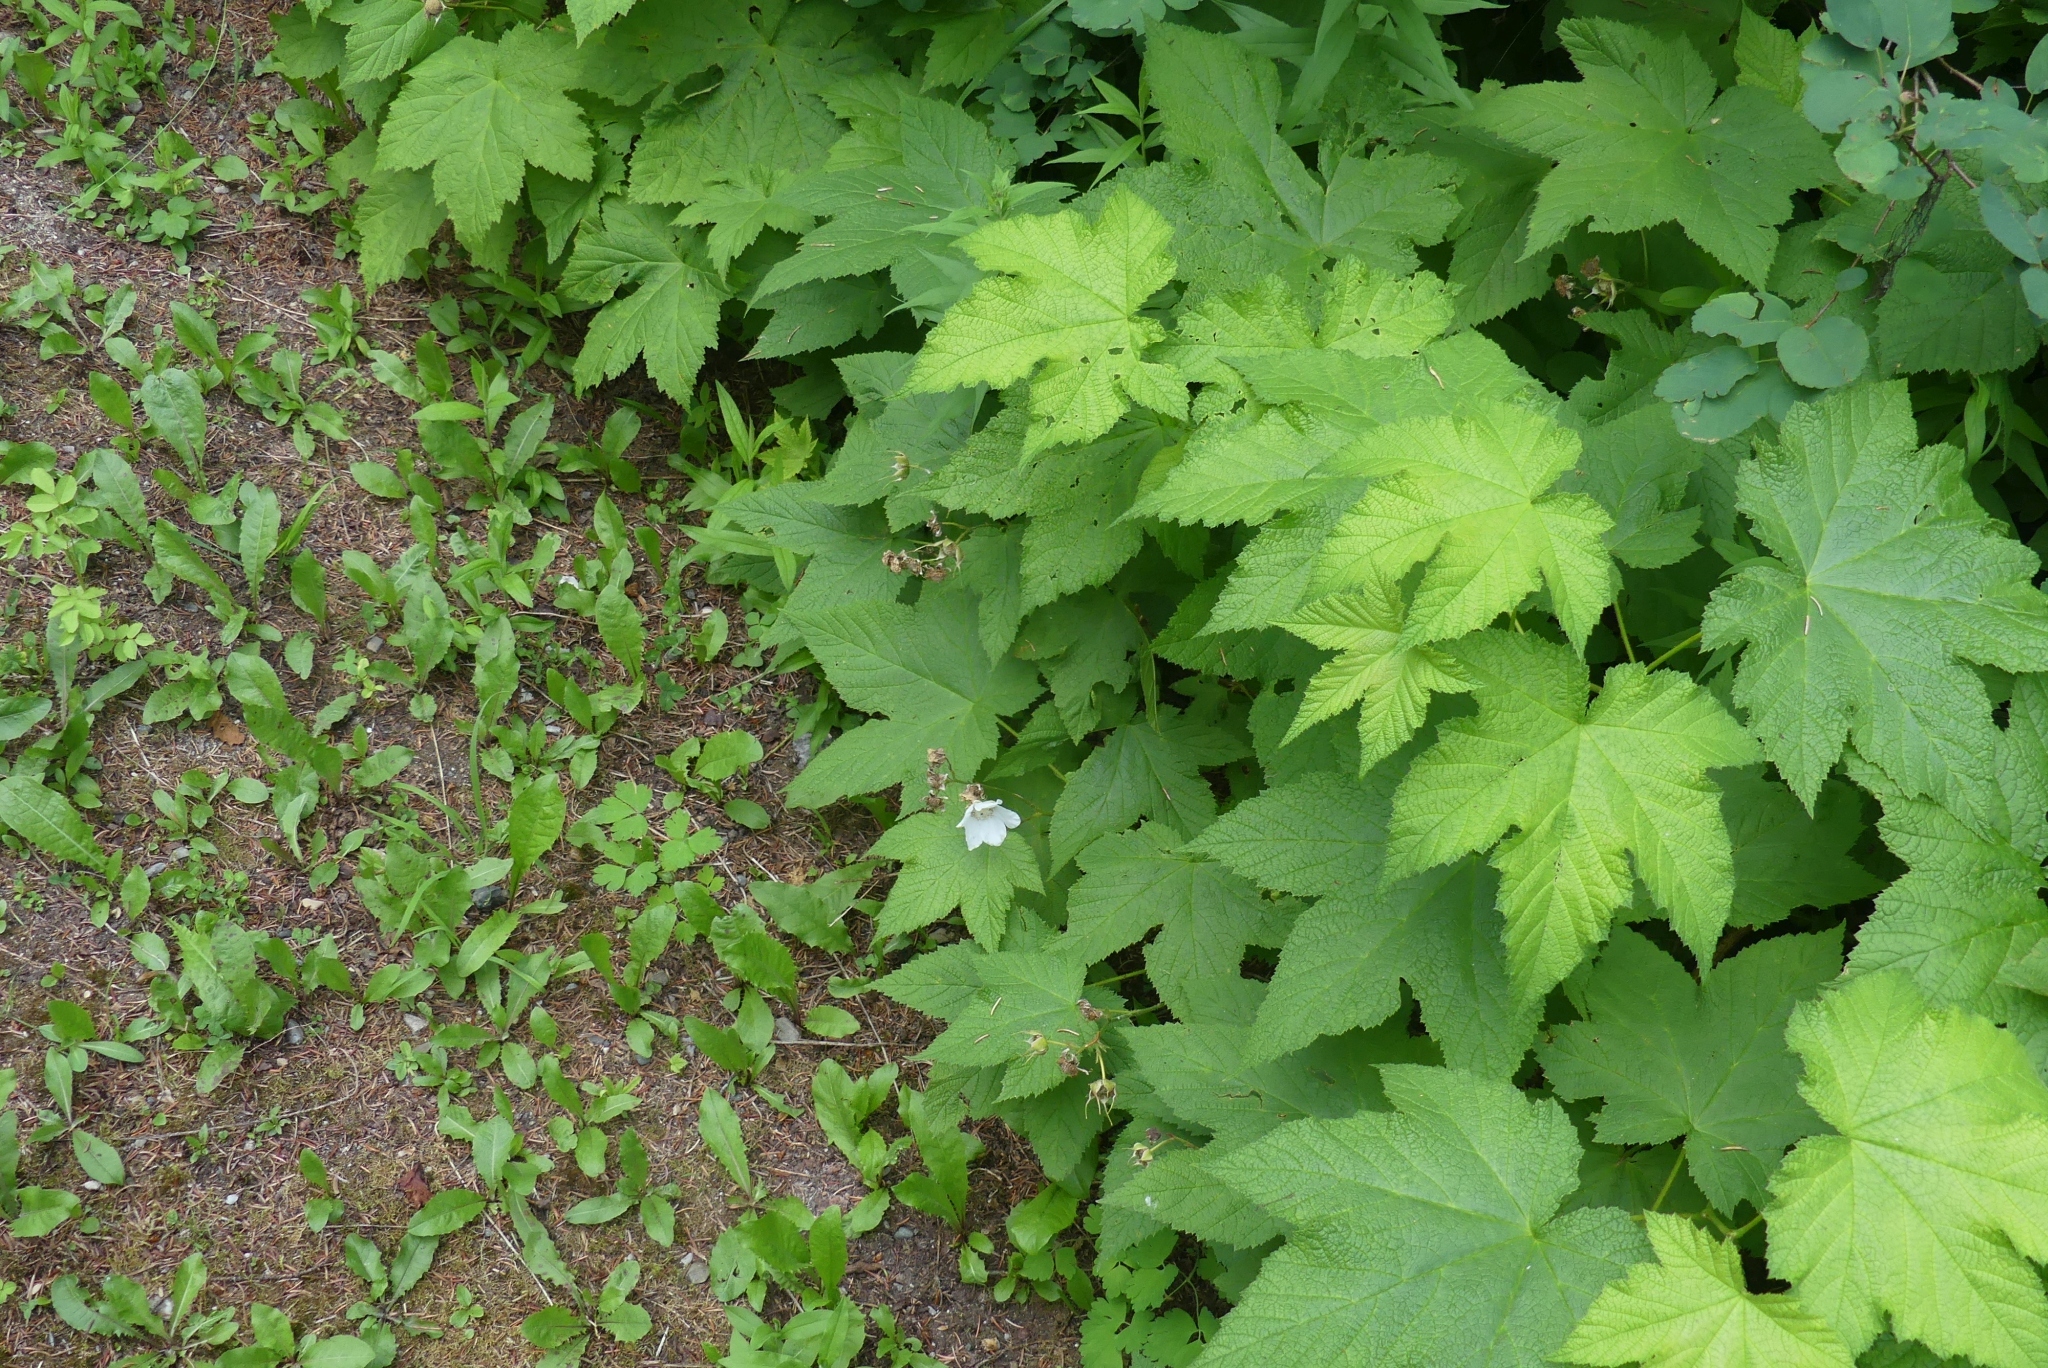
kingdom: Plantae
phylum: Tracheophyta
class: Magnoliopsida
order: Rosales
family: Rosaceae
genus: Rubus
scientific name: Rubus parviflorus
